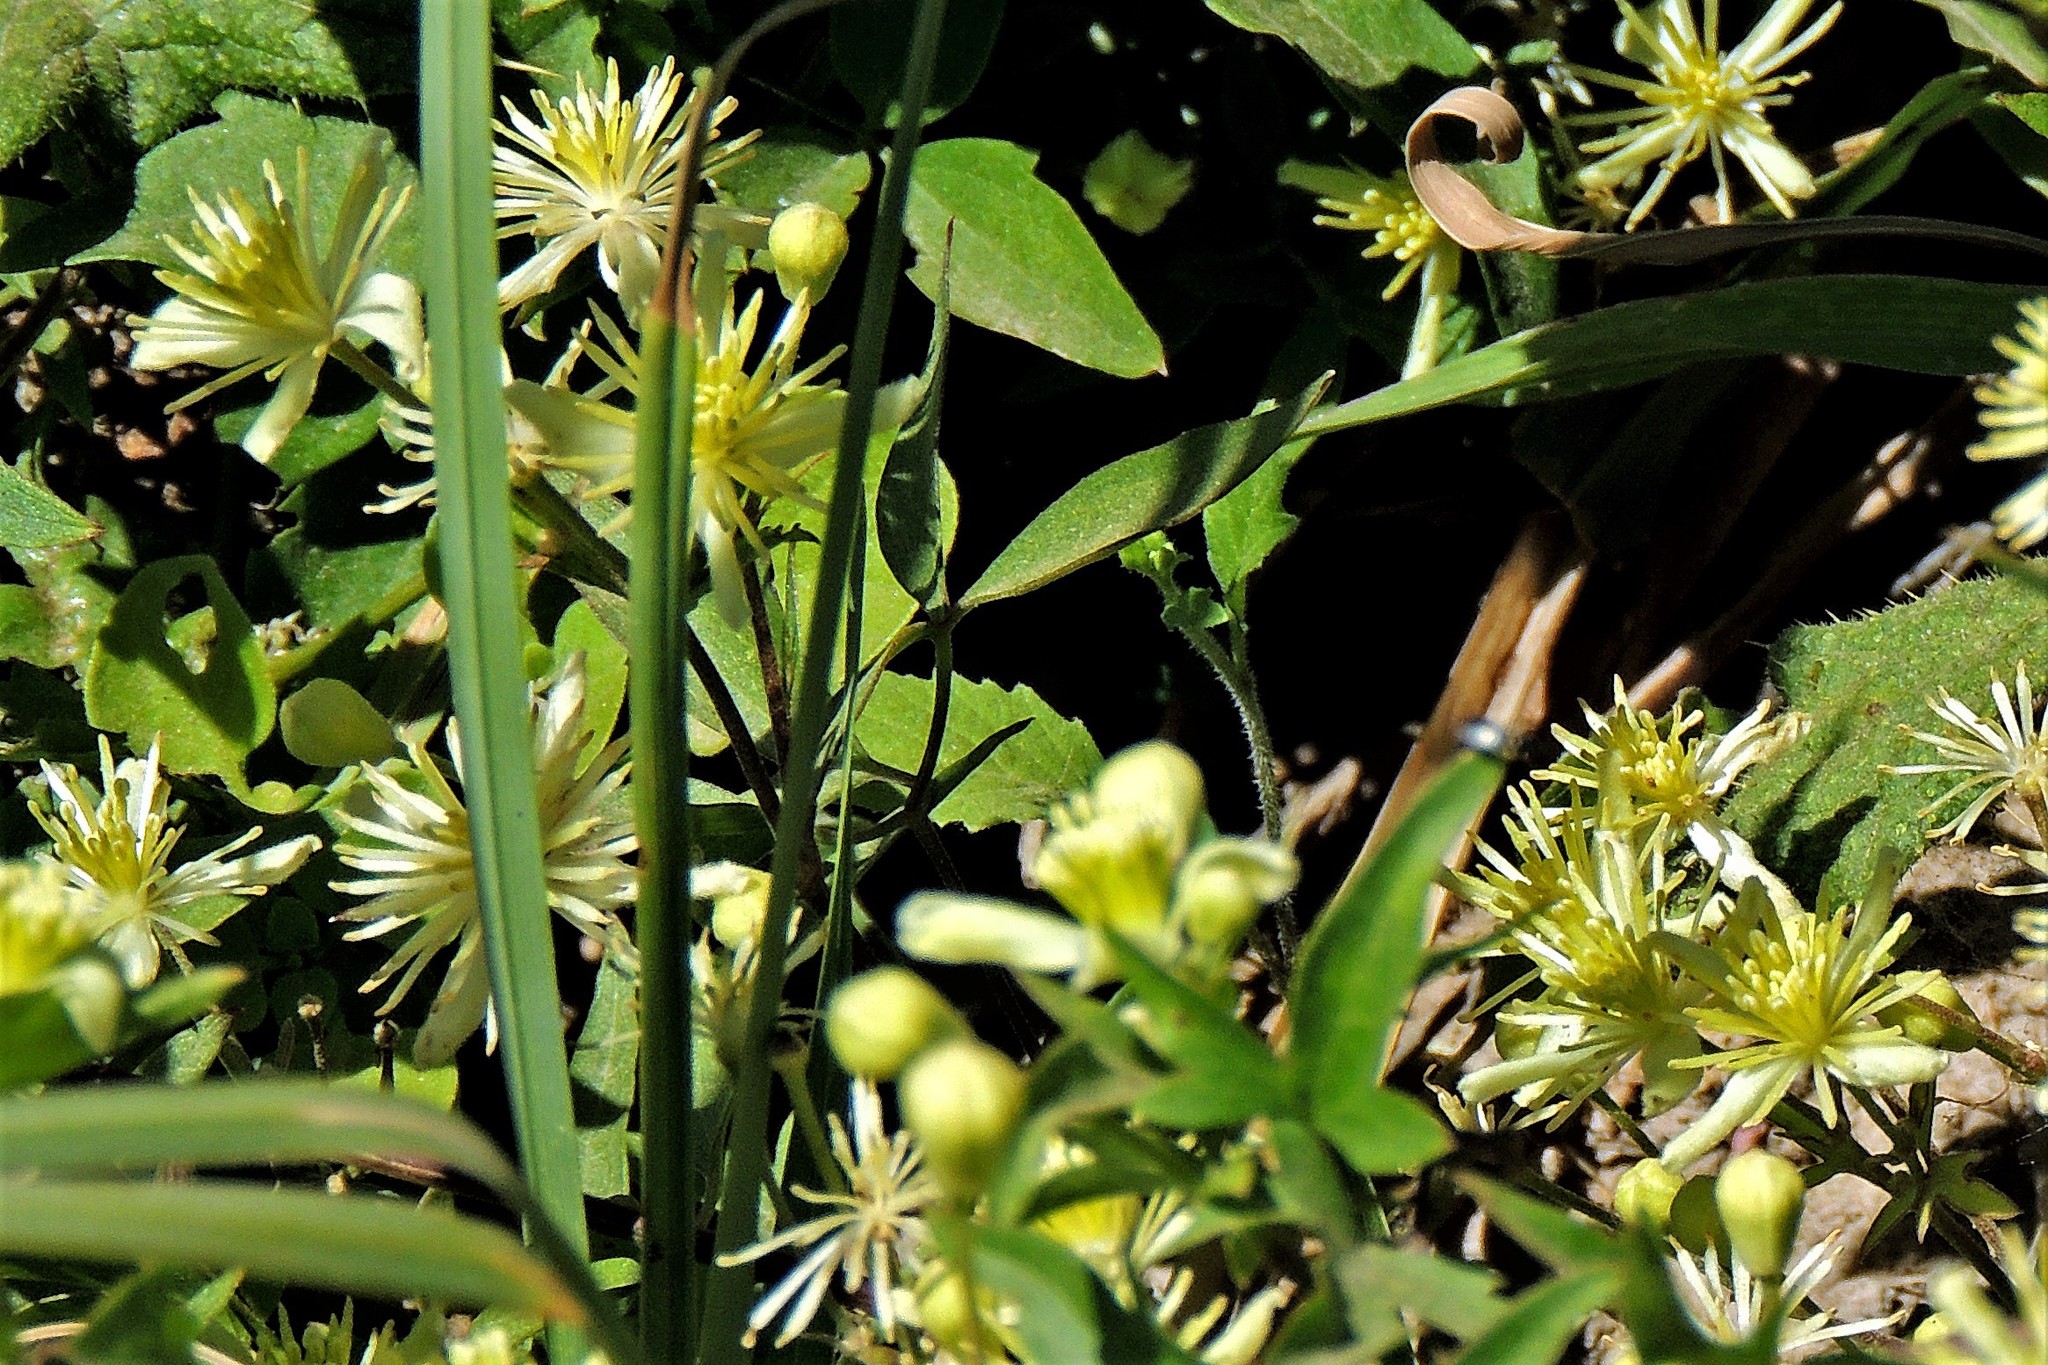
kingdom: Plantae
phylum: Tracheophyta
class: Magnoliopsida
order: Ranunculales
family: Ranunculaceae
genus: Clematis
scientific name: Clematis montevidensis
